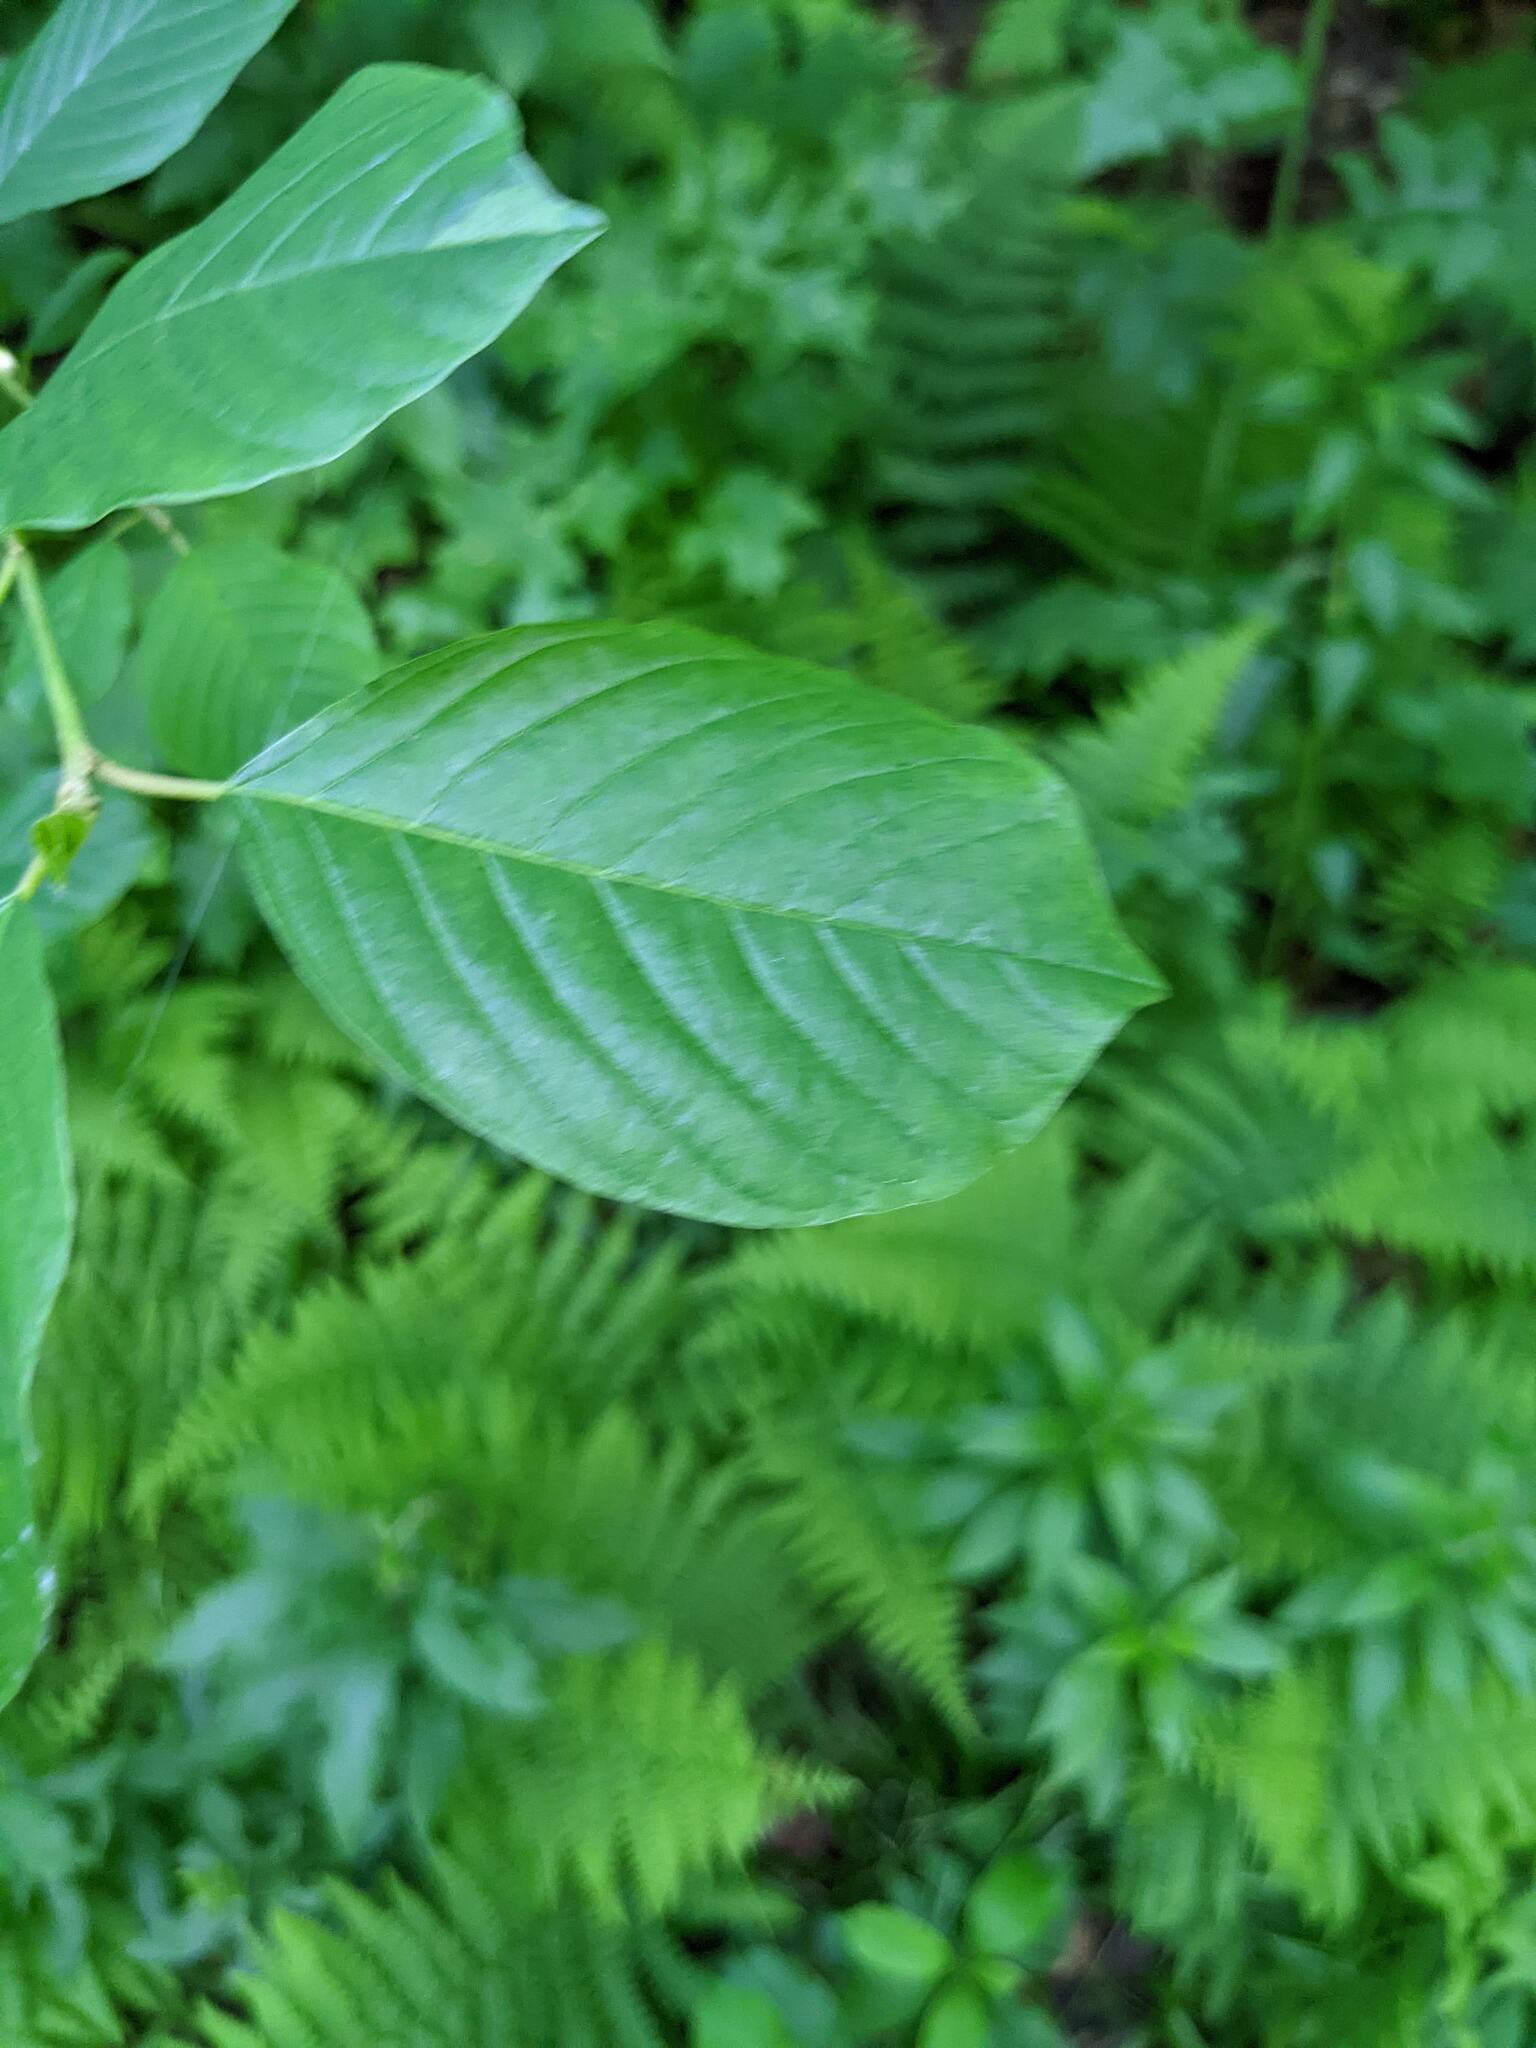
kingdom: Plantae
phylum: Tracheophyta
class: Magnoliopsida
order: Rosales
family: Rhamnaceae
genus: Frangula
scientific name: Frangula alnus
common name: Alder buckthorn
